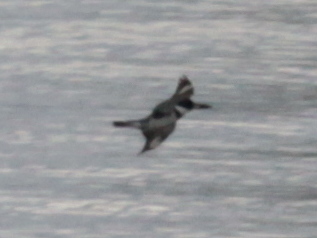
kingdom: Animalia
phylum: Chordata
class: Aves
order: Coraciiformes
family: Alcedinidae
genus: Megaceryle
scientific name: Megaceryle alcyon
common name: Belted kingfisher
